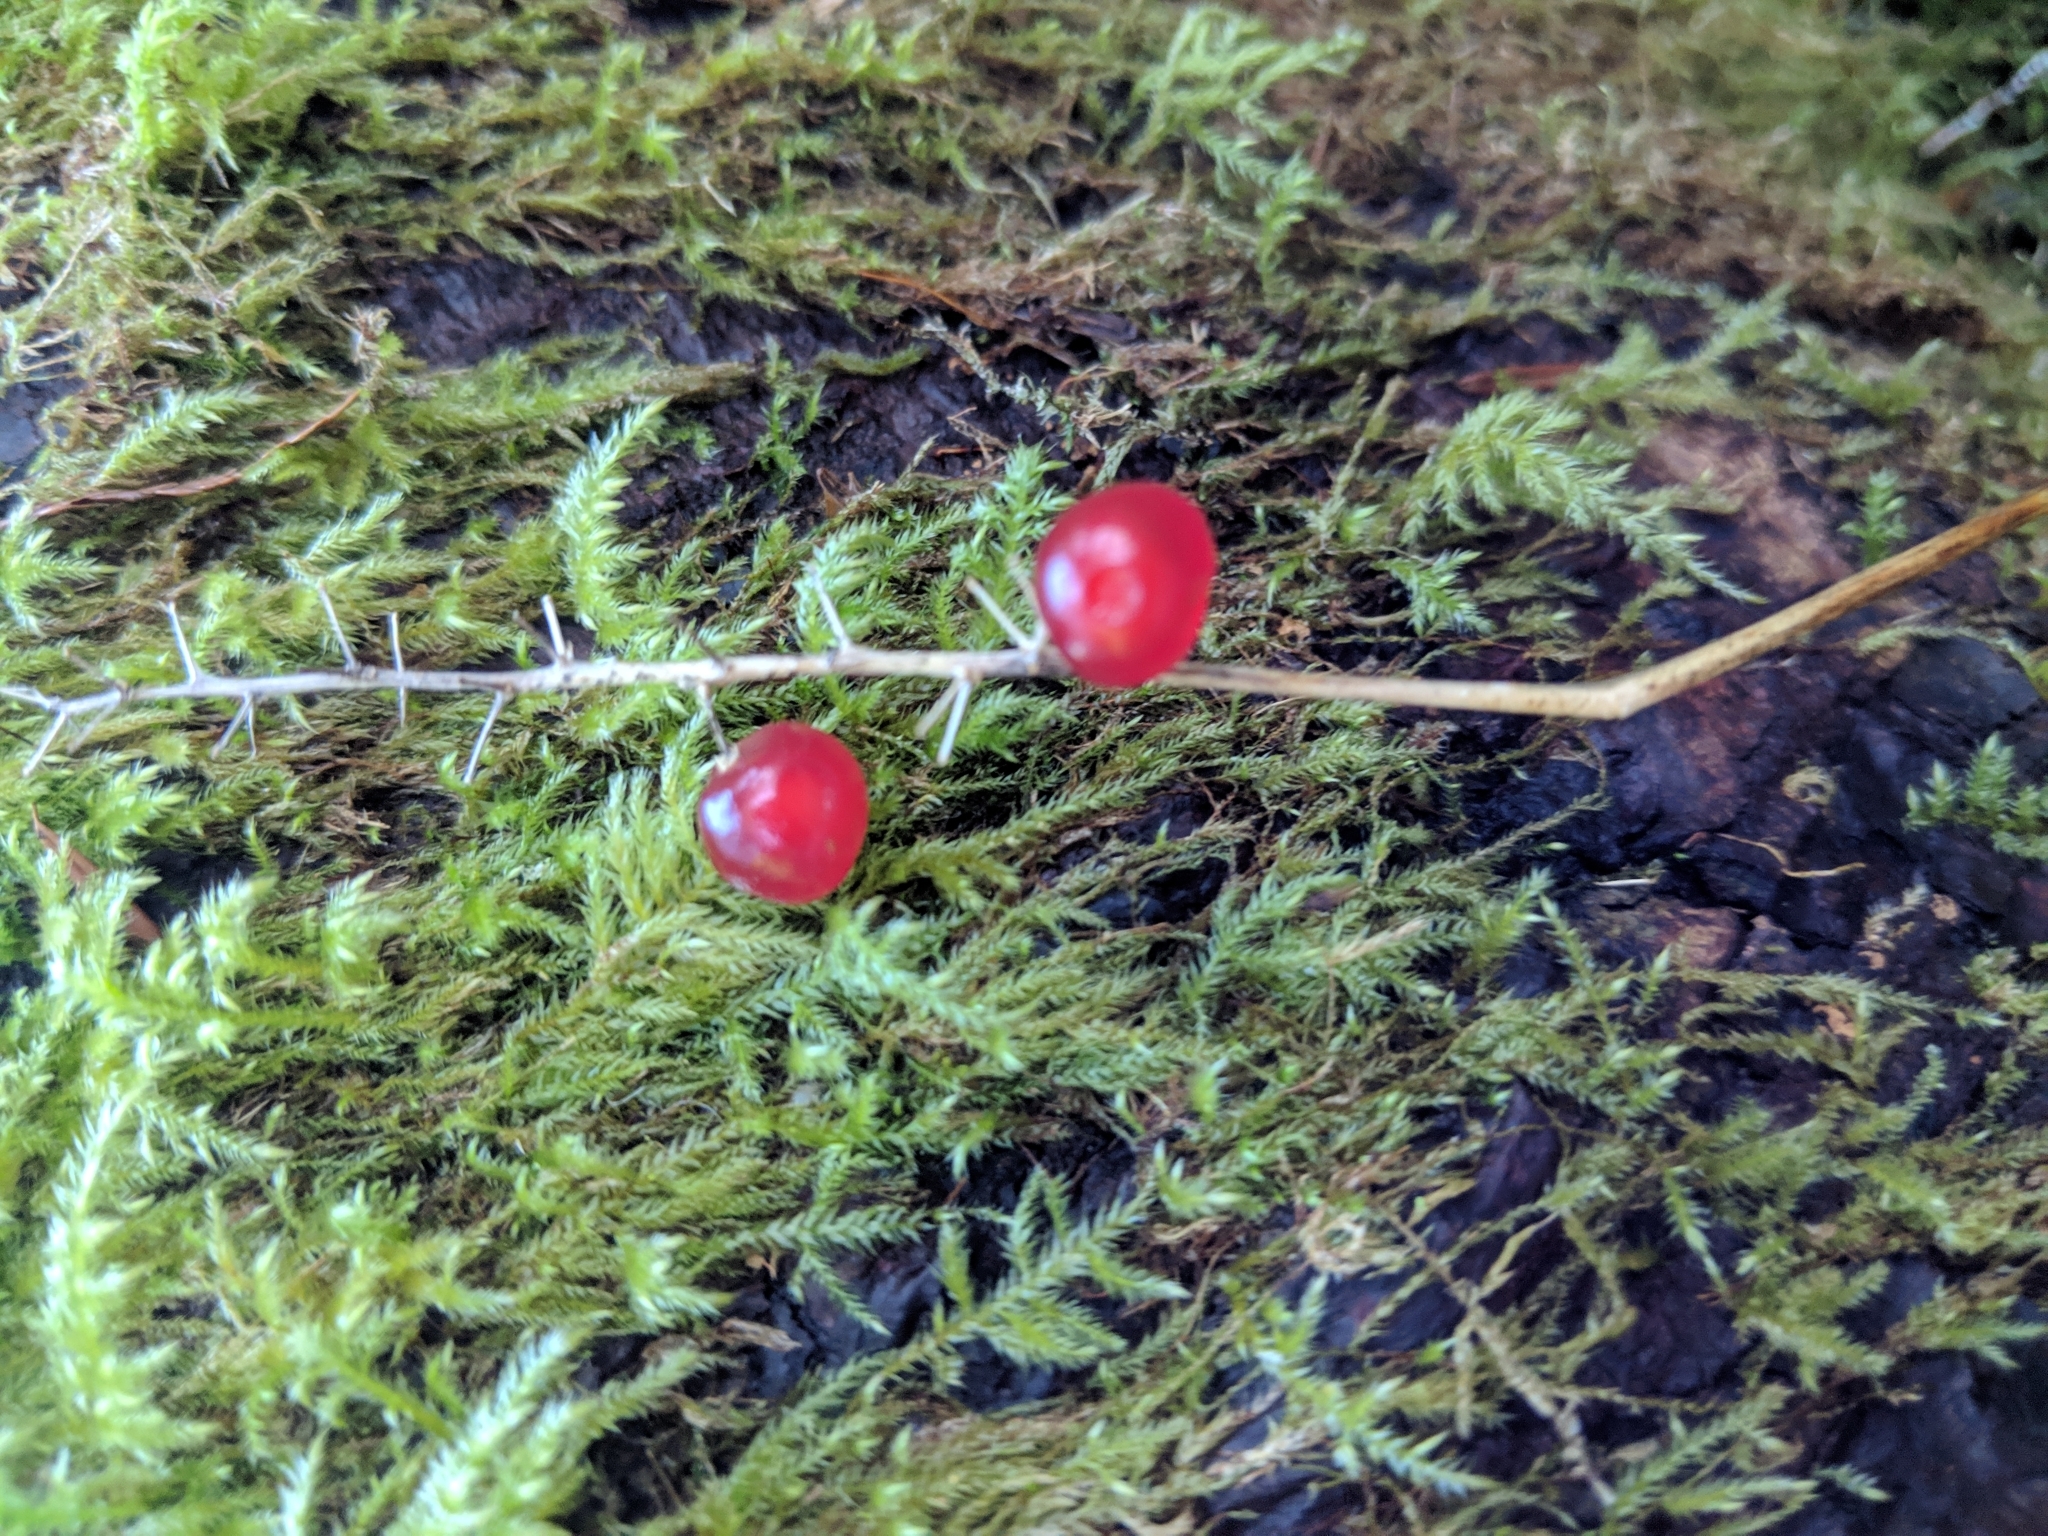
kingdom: Plantae
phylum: Tracheophyta
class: Liliopsida
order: Asparagales
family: Asparagaceae
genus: Maianthemum
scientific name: Maianthemum dilatatum
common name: False lily-of-the-valley
